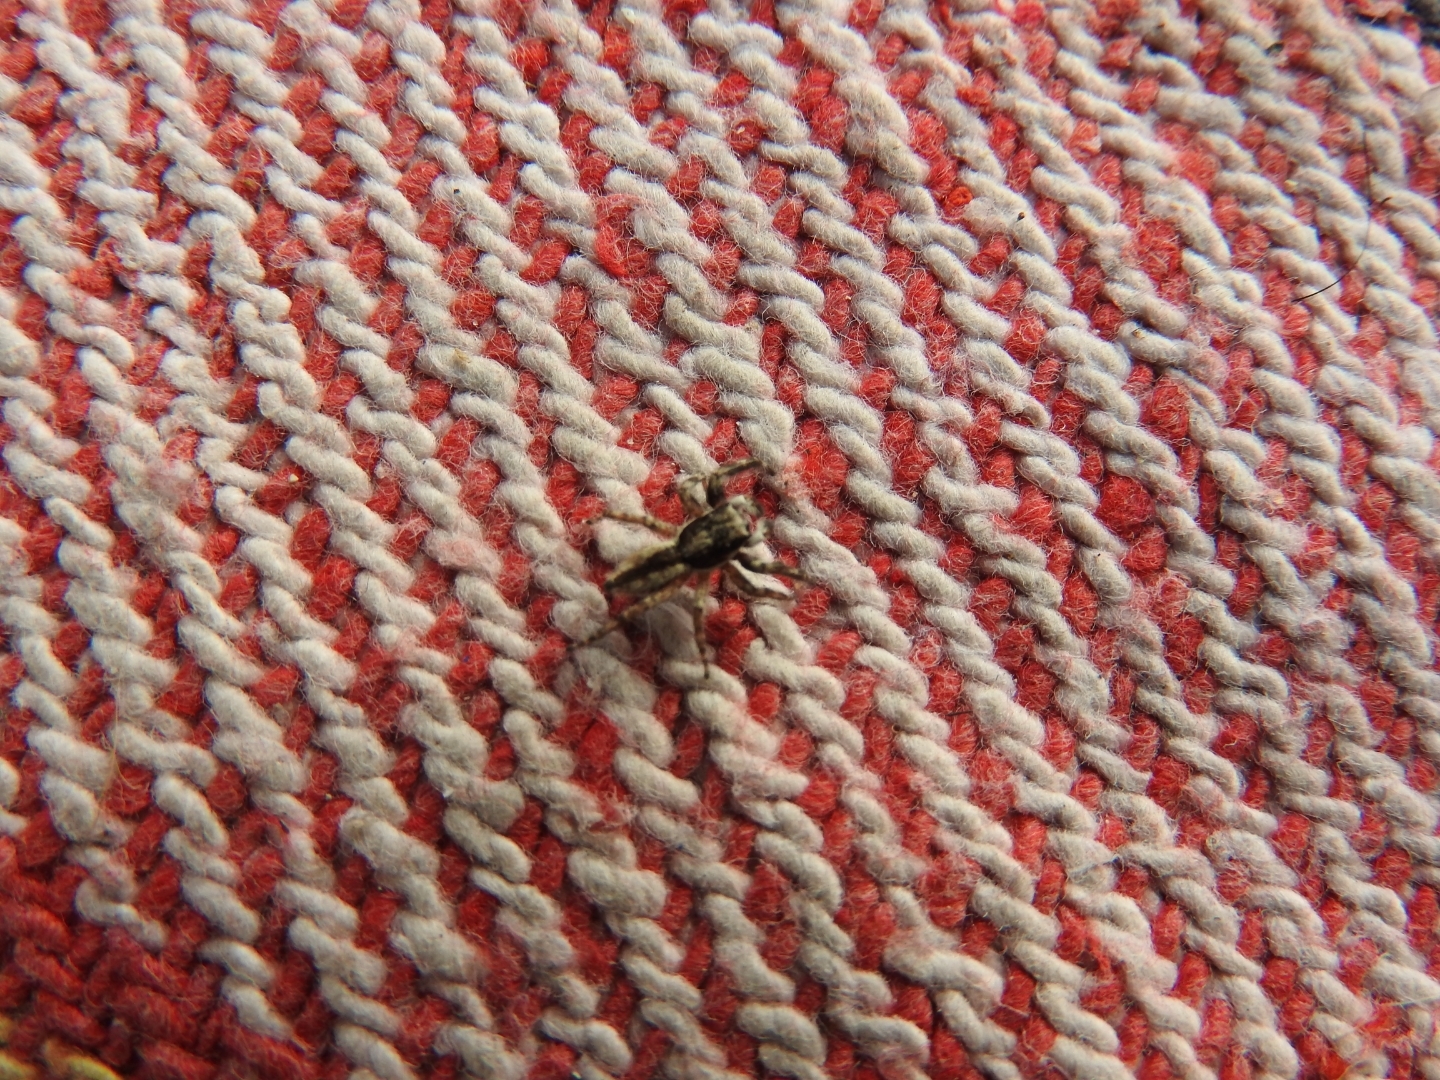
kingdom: Animalia
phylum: Arthropoda
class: Arachnida
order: Araneae
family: Salticidae
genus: Menemerus
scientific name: Menemerus bivittatus
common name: Gray wall jumper
